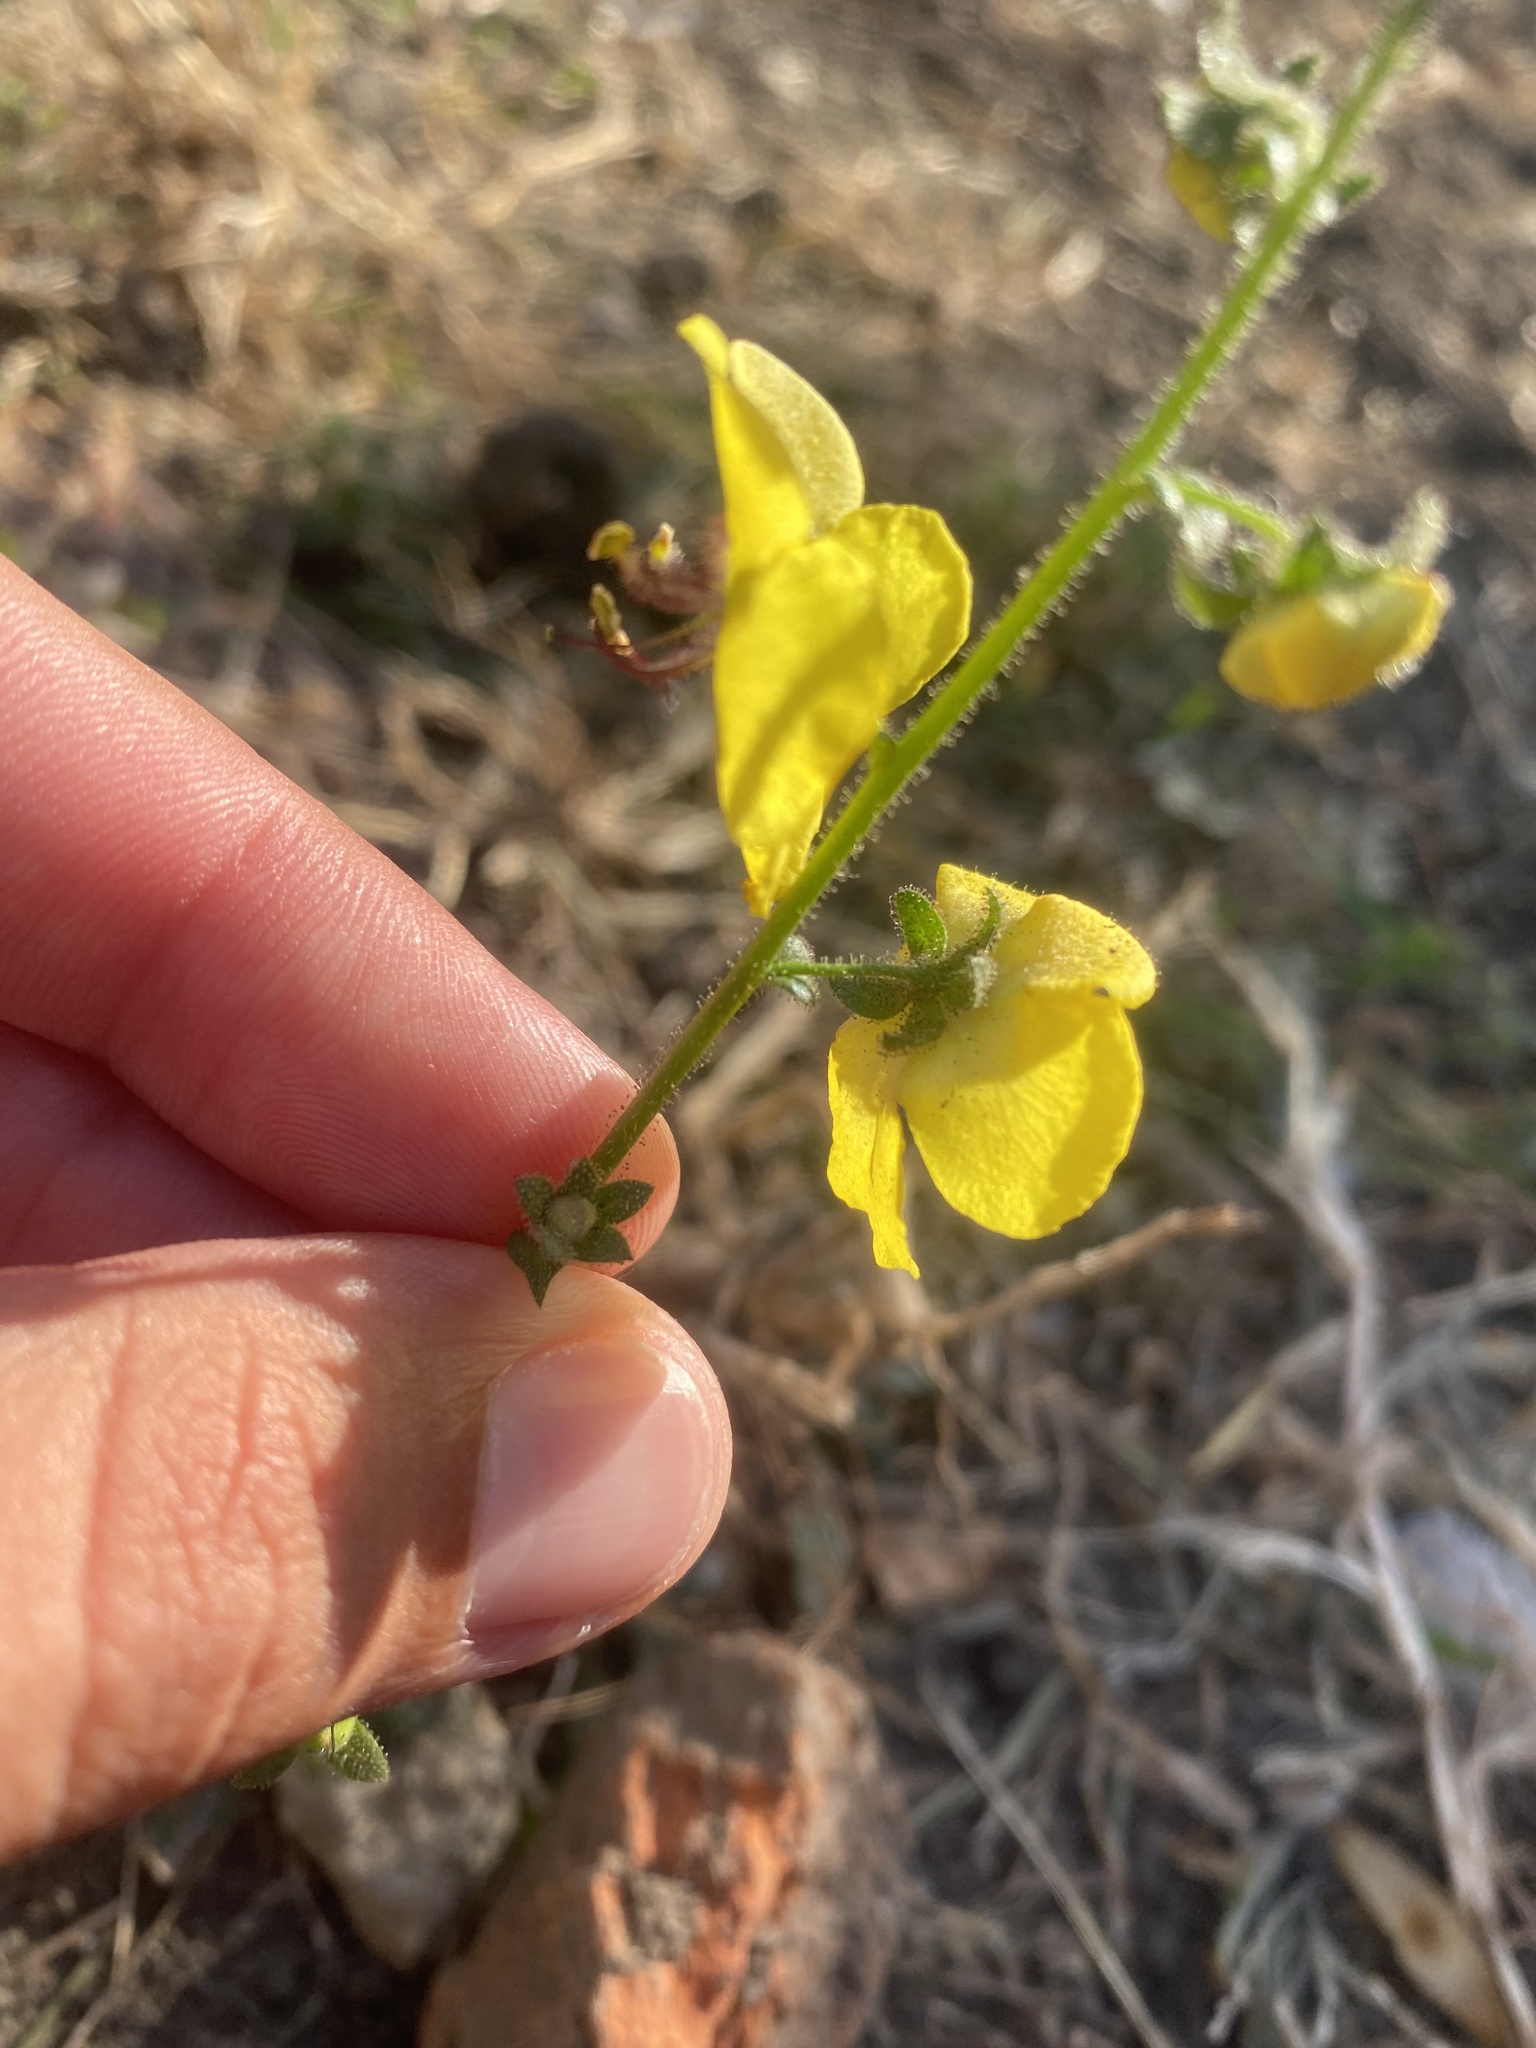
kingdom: Plantae
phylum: Tracheophyta
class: Magnoliopsida
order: Lamiales
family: Scrophulariaceae
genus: Verbascum
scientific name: Verbascum blattaria
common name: Moth mullein
